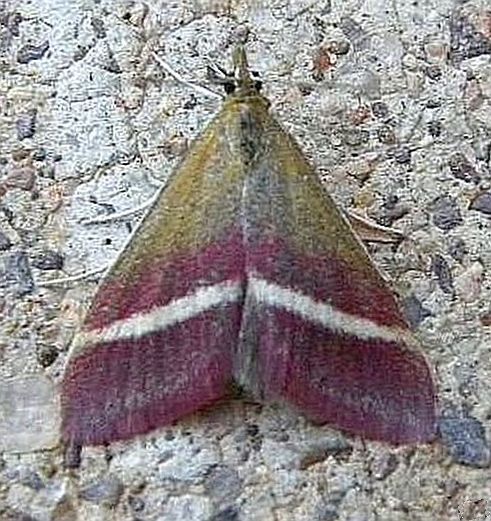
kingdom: Animalia
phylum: Arthropoda
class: Insecta
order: Lepidoptera
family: Crambidae
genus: Pyrausta
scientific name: Pyrausta corinthalis
